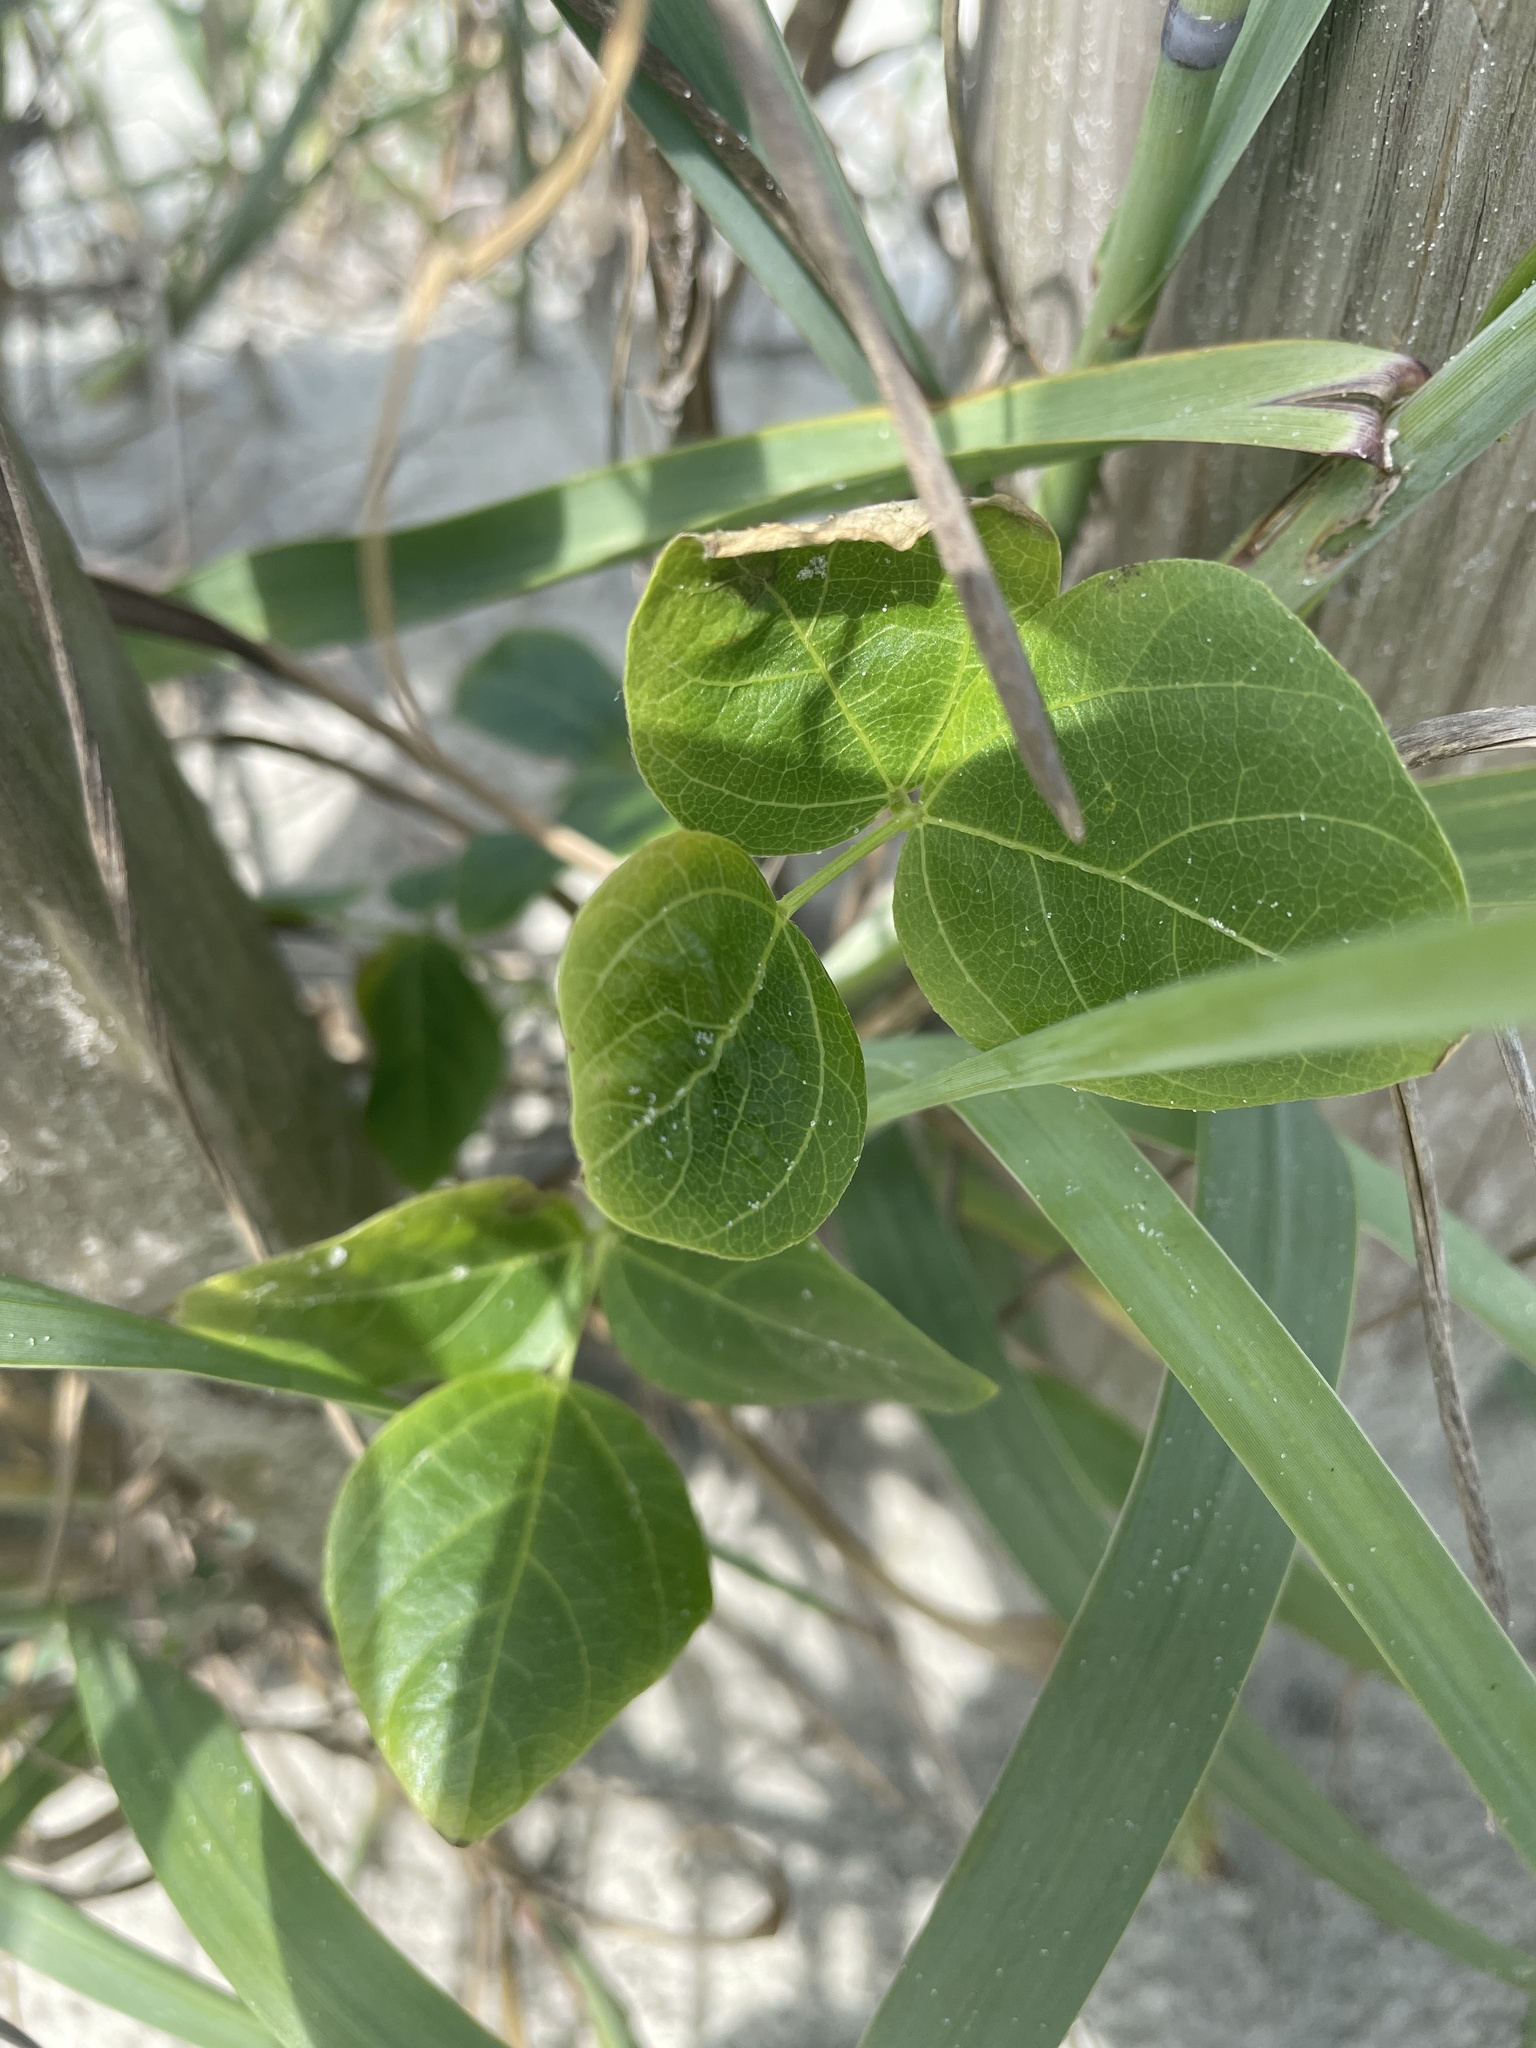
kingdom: Plantae
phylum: Tracheophyta
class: Magnoliopsida
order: Fabales
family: Fabaceae
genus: Strophostyles
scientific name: Strophostyles helvola
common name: Trailing wild bean
